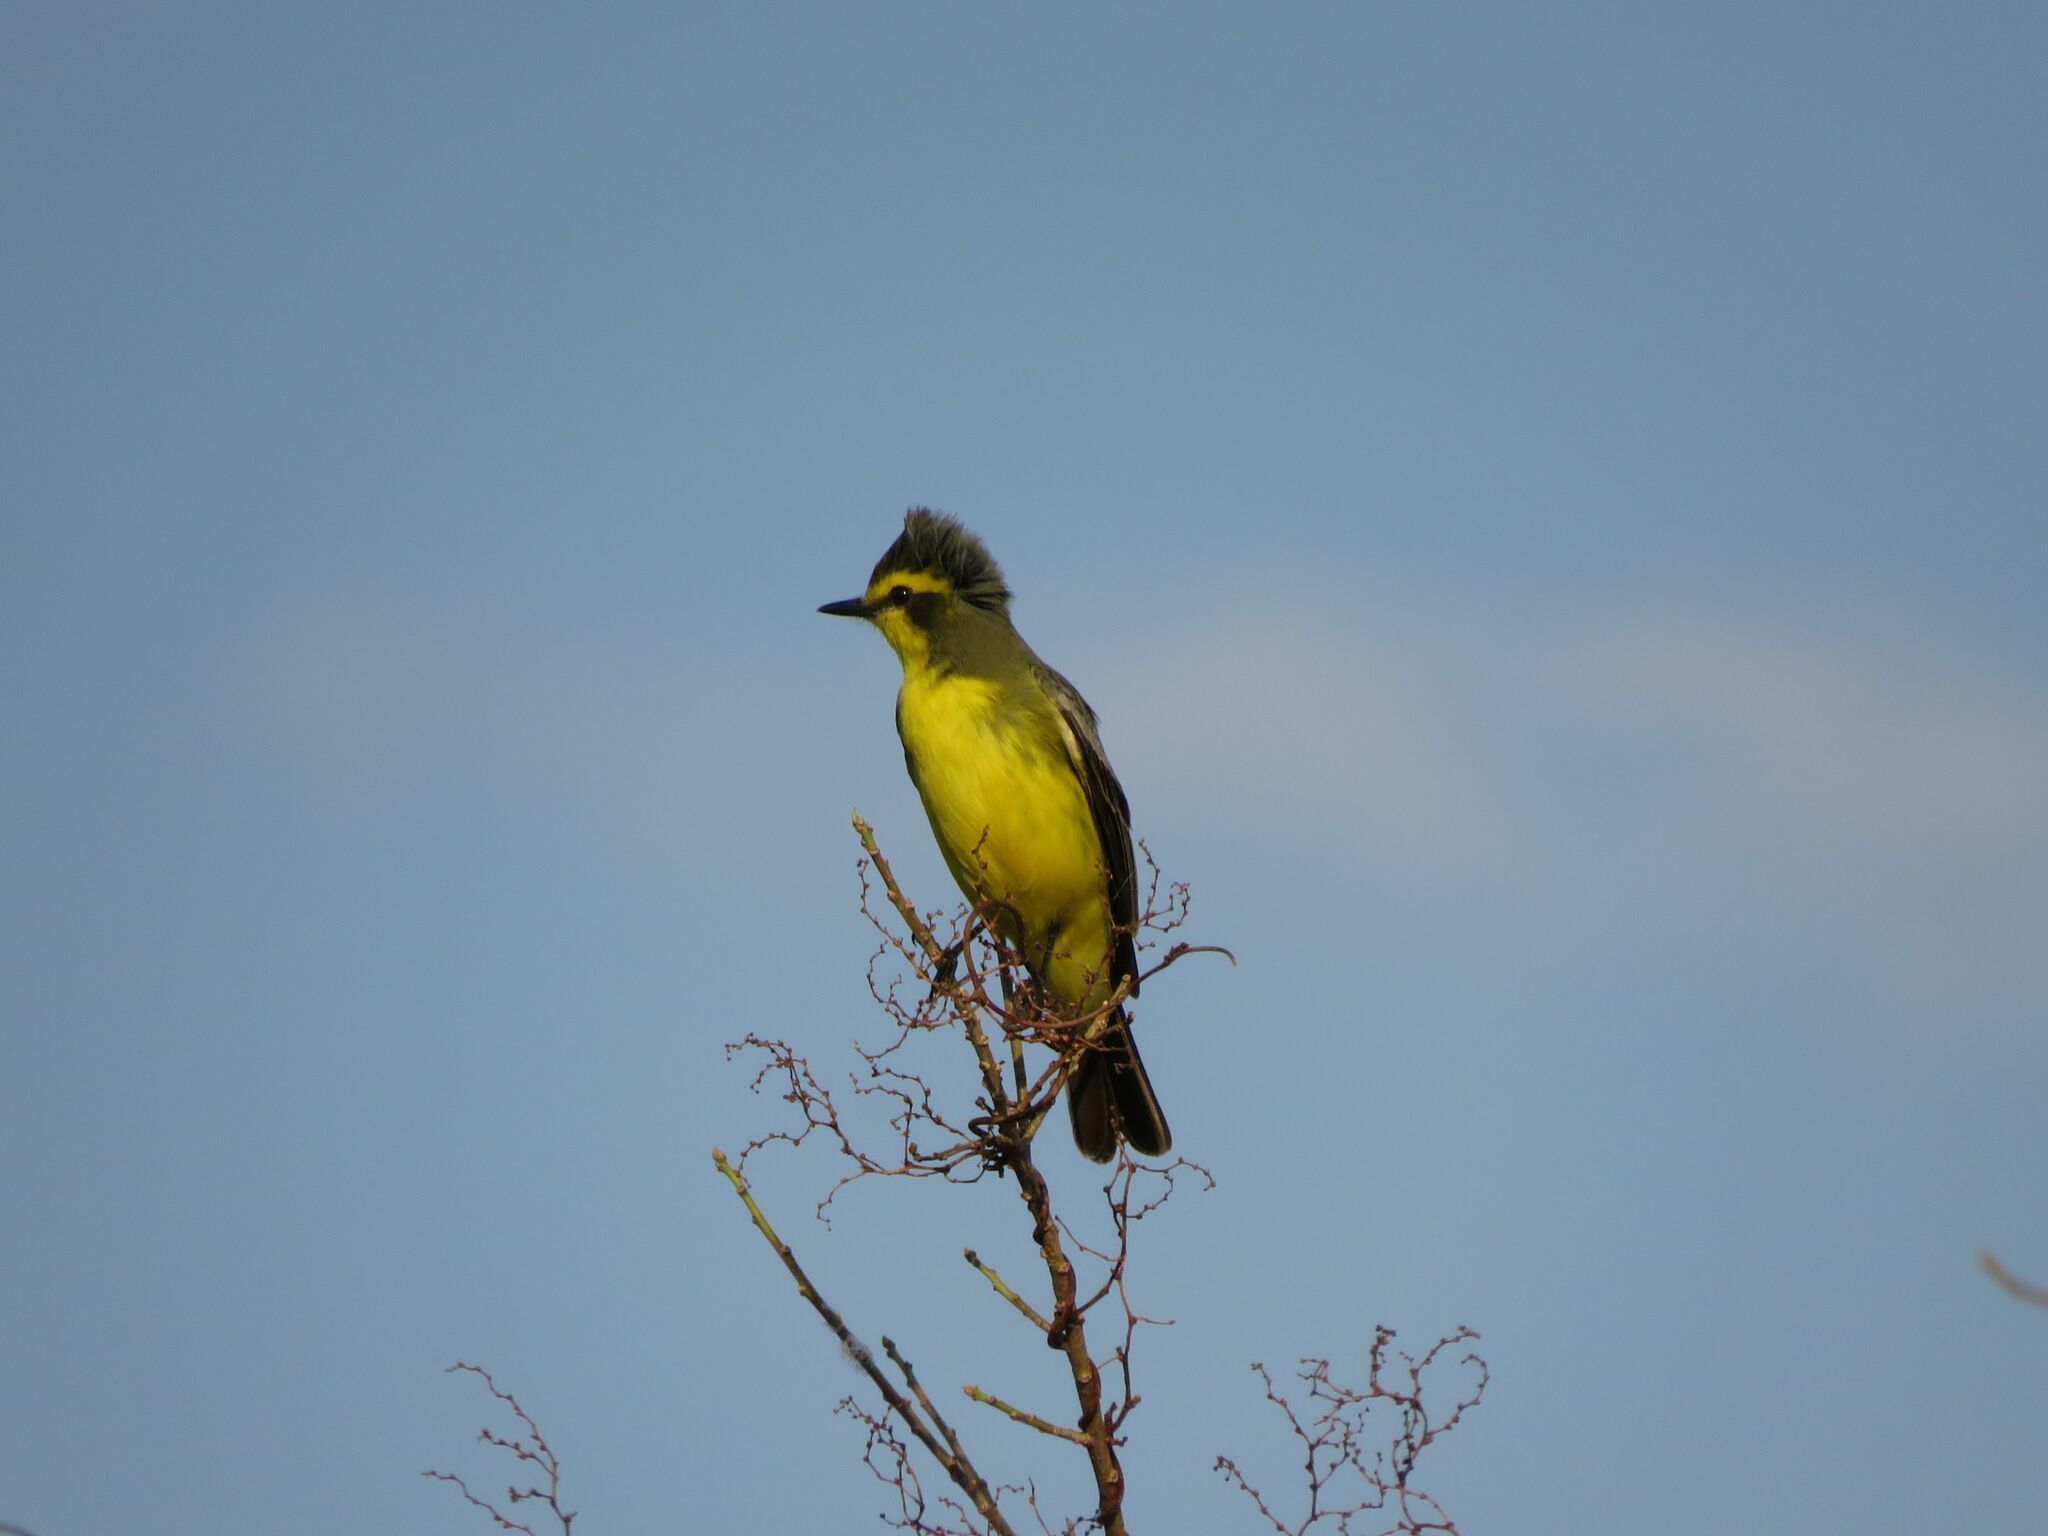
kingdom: Animalia
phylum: Chordata
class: Aves
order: Passeriformes
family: Tyrannidae
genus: Satrapa
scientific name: Satrapa icterophrys
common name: Yellow-browed tyrant
